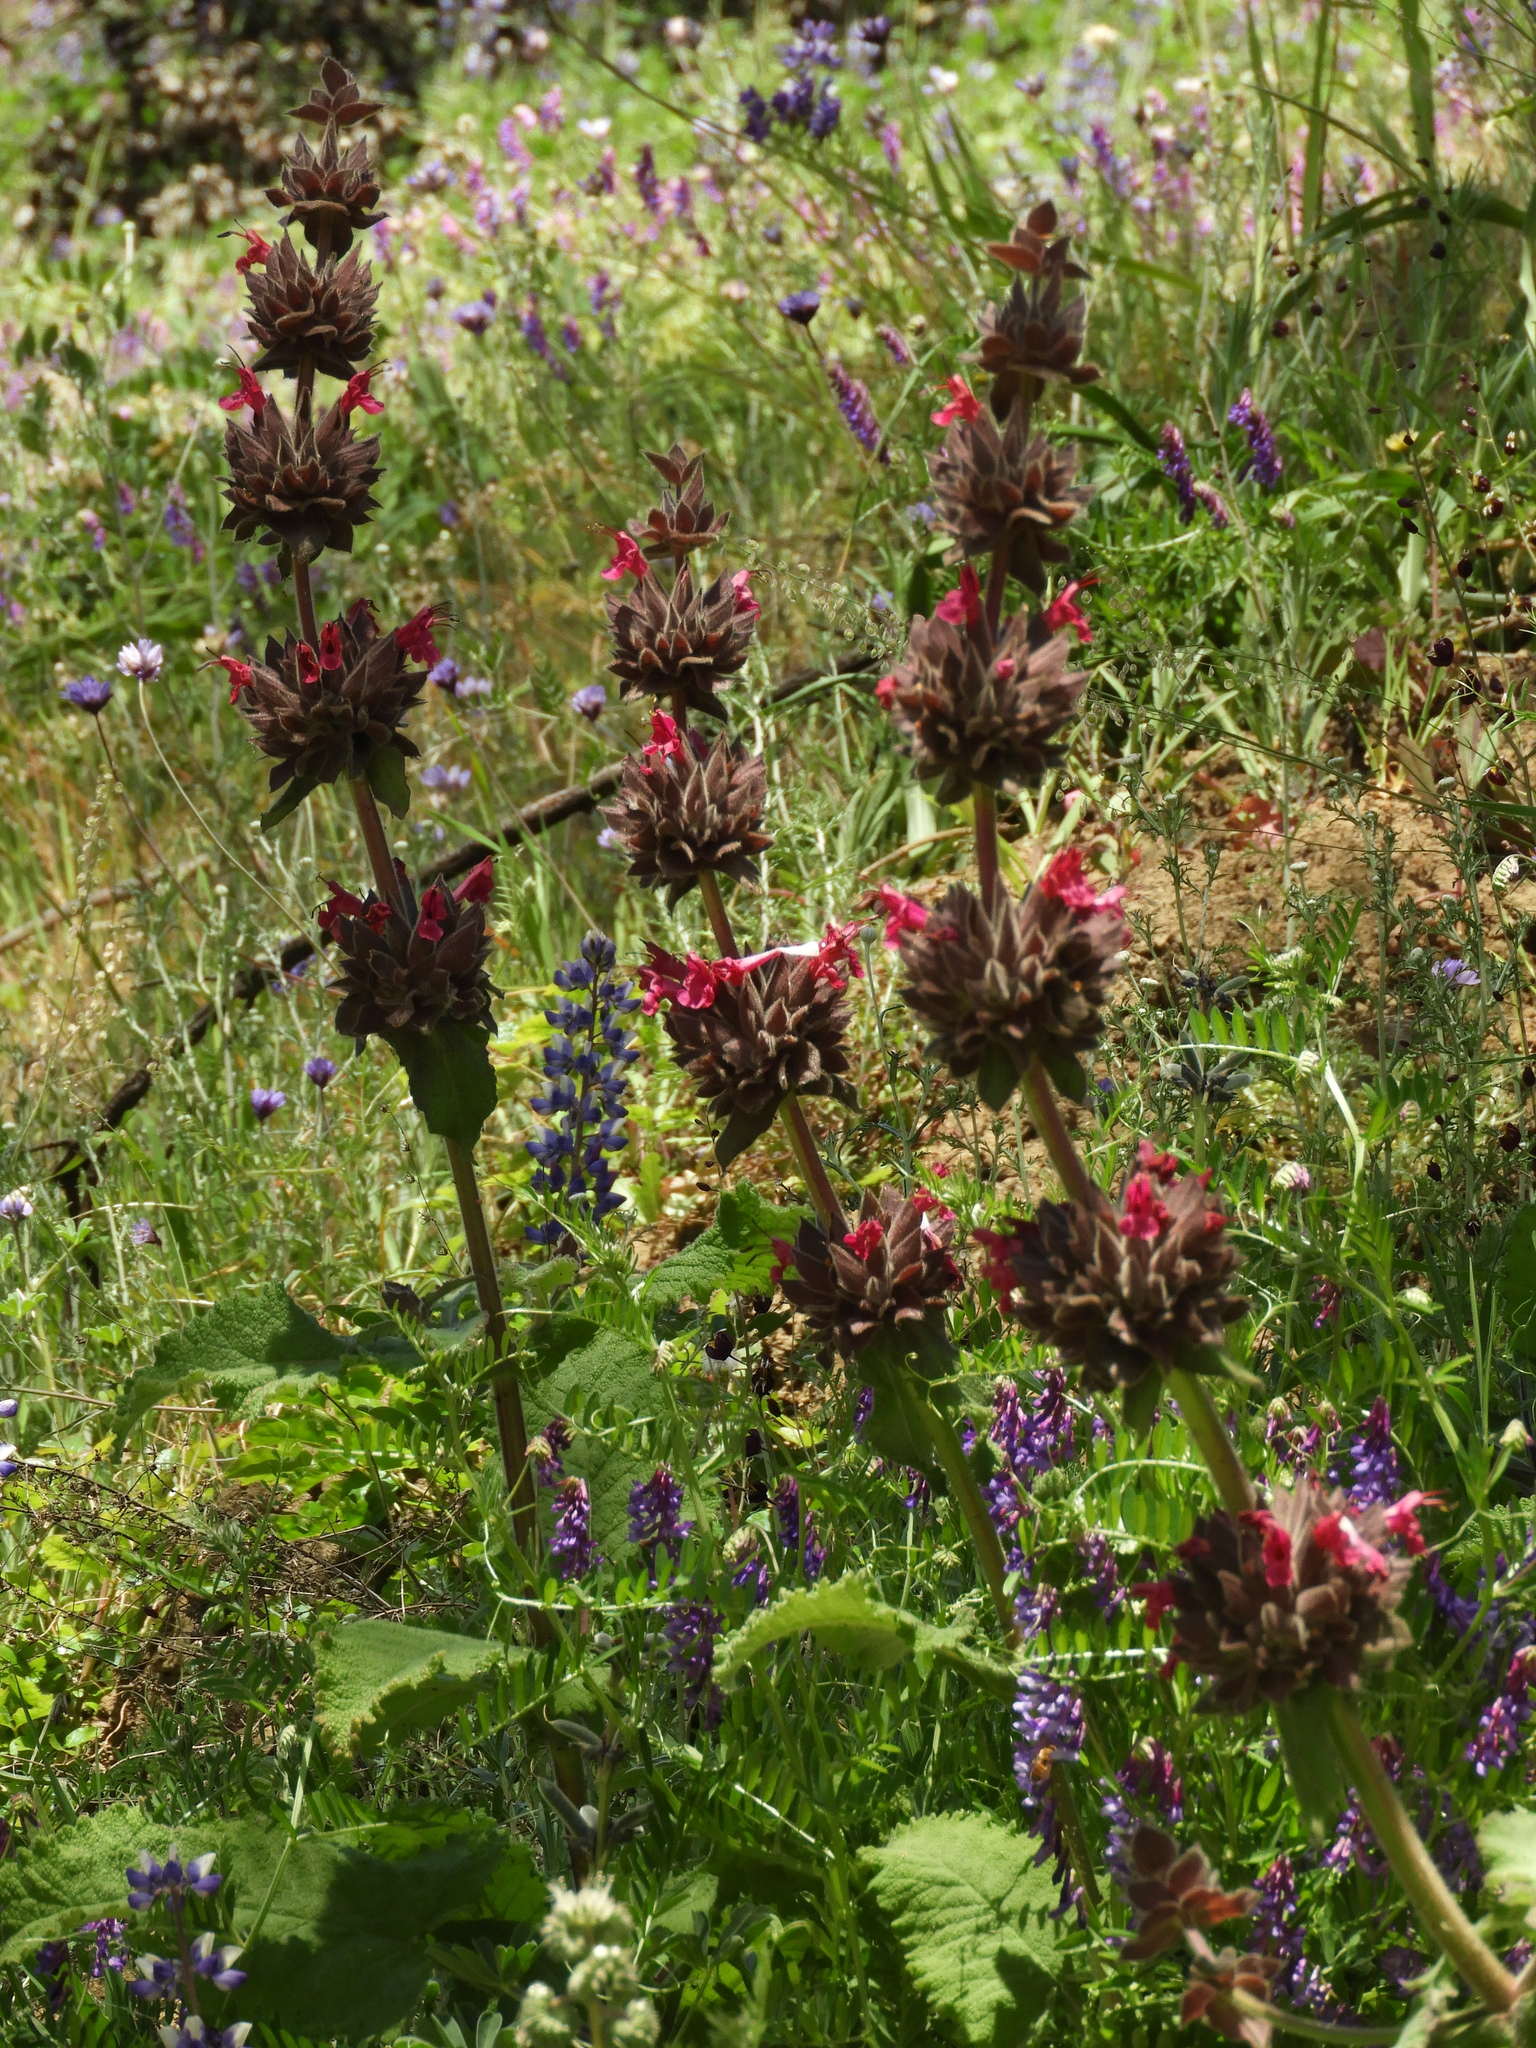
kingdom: Plantae
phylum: Tracheophyta
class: Magnoliopsida
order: Lamiales
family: Lamiaceae
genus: Salvia
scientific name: Salvia spathacea
